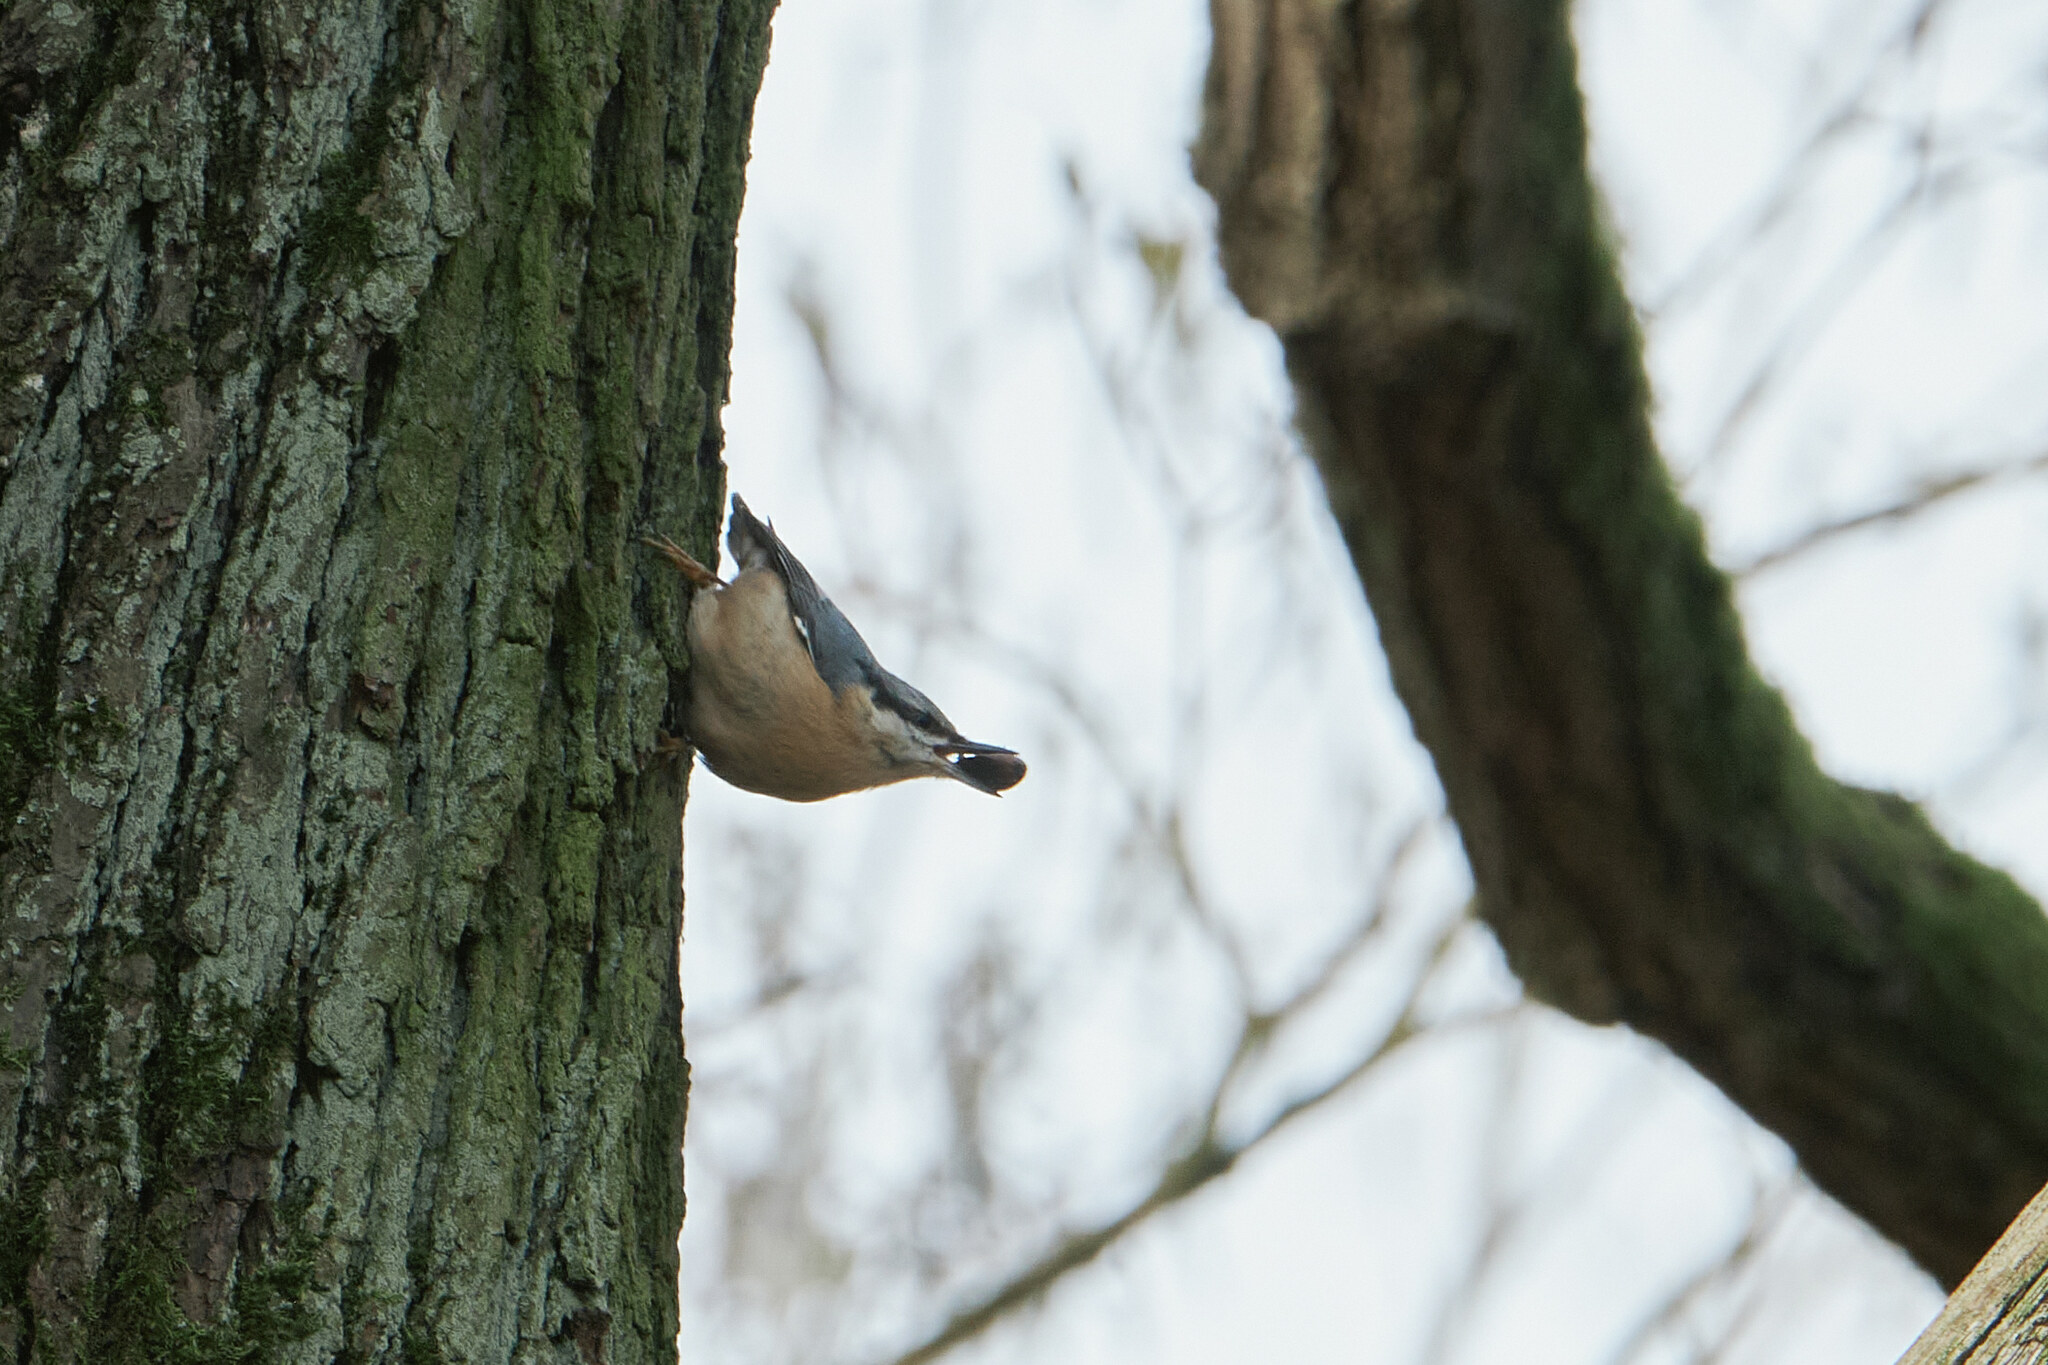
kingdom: Animalia
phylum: Chordata
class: Aves
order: Passeriformes
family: Sittidae
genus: Sitta
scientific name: Sitta europaea
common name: Eurasian nuthatch
